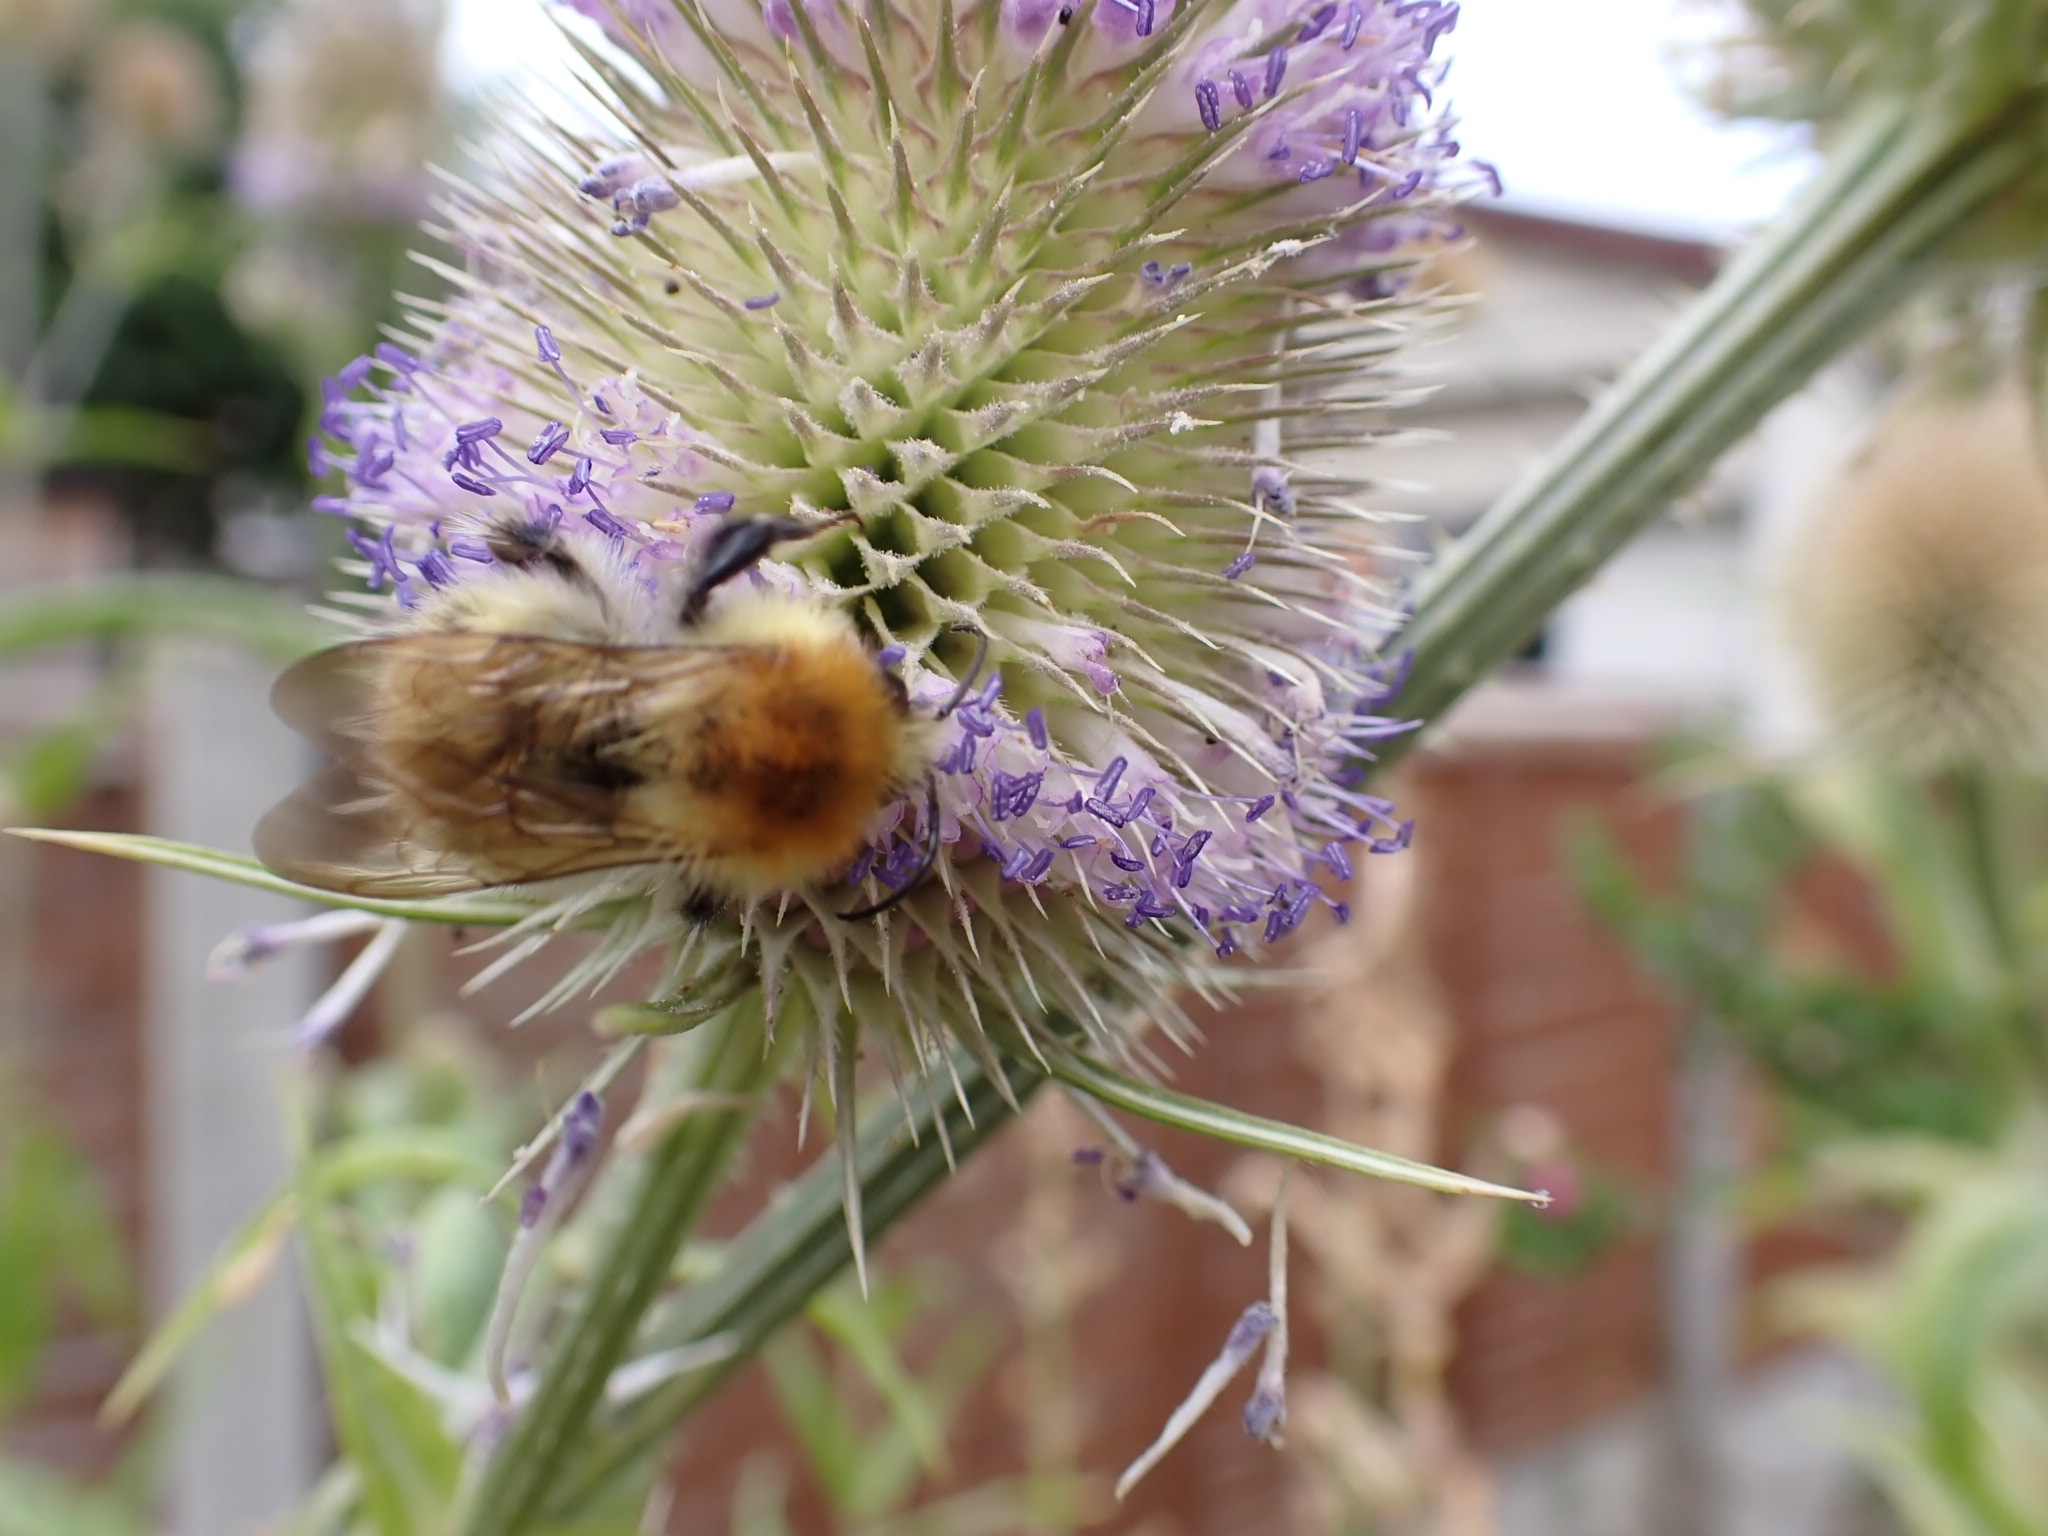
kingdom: Animalia
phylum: Arthropoda
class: Insecta
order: Hymenoptera
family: Apidae
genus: Bombus
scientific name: Bombus pascuorum
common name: Common carder bee
